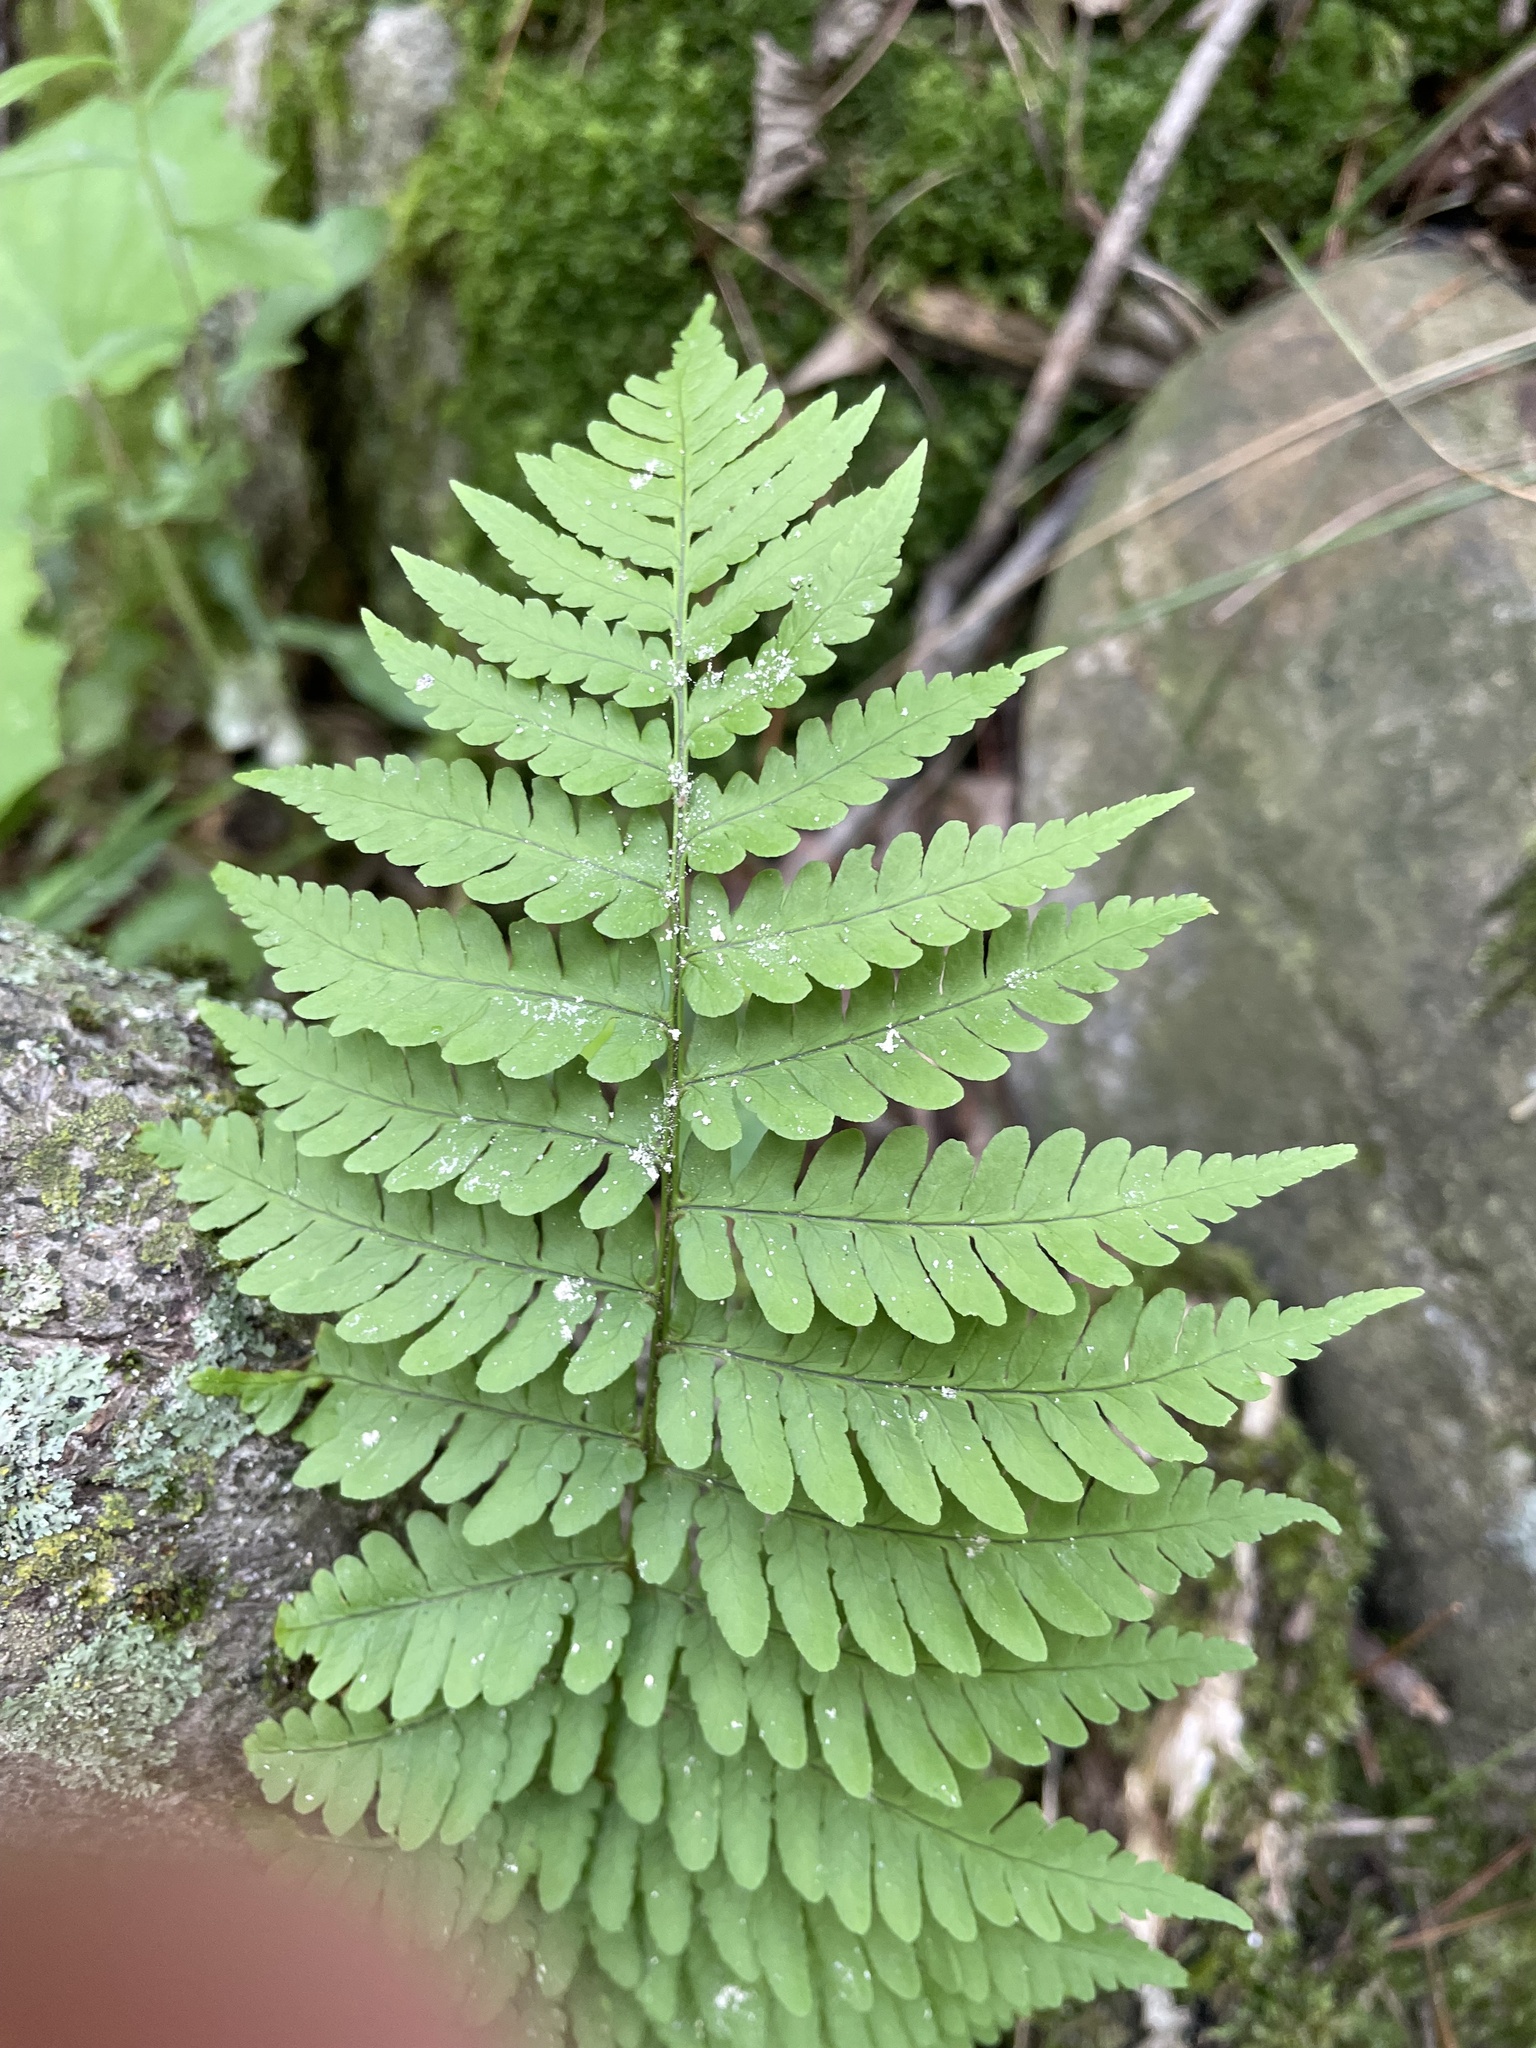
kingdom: Plantae
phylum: Tracheophyta
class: Polypodiopsida
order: Polypodiales
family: Dryopteridaceae
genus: Dryopteris
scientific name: Dryopteris marginalis
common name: Marginal wood fern
